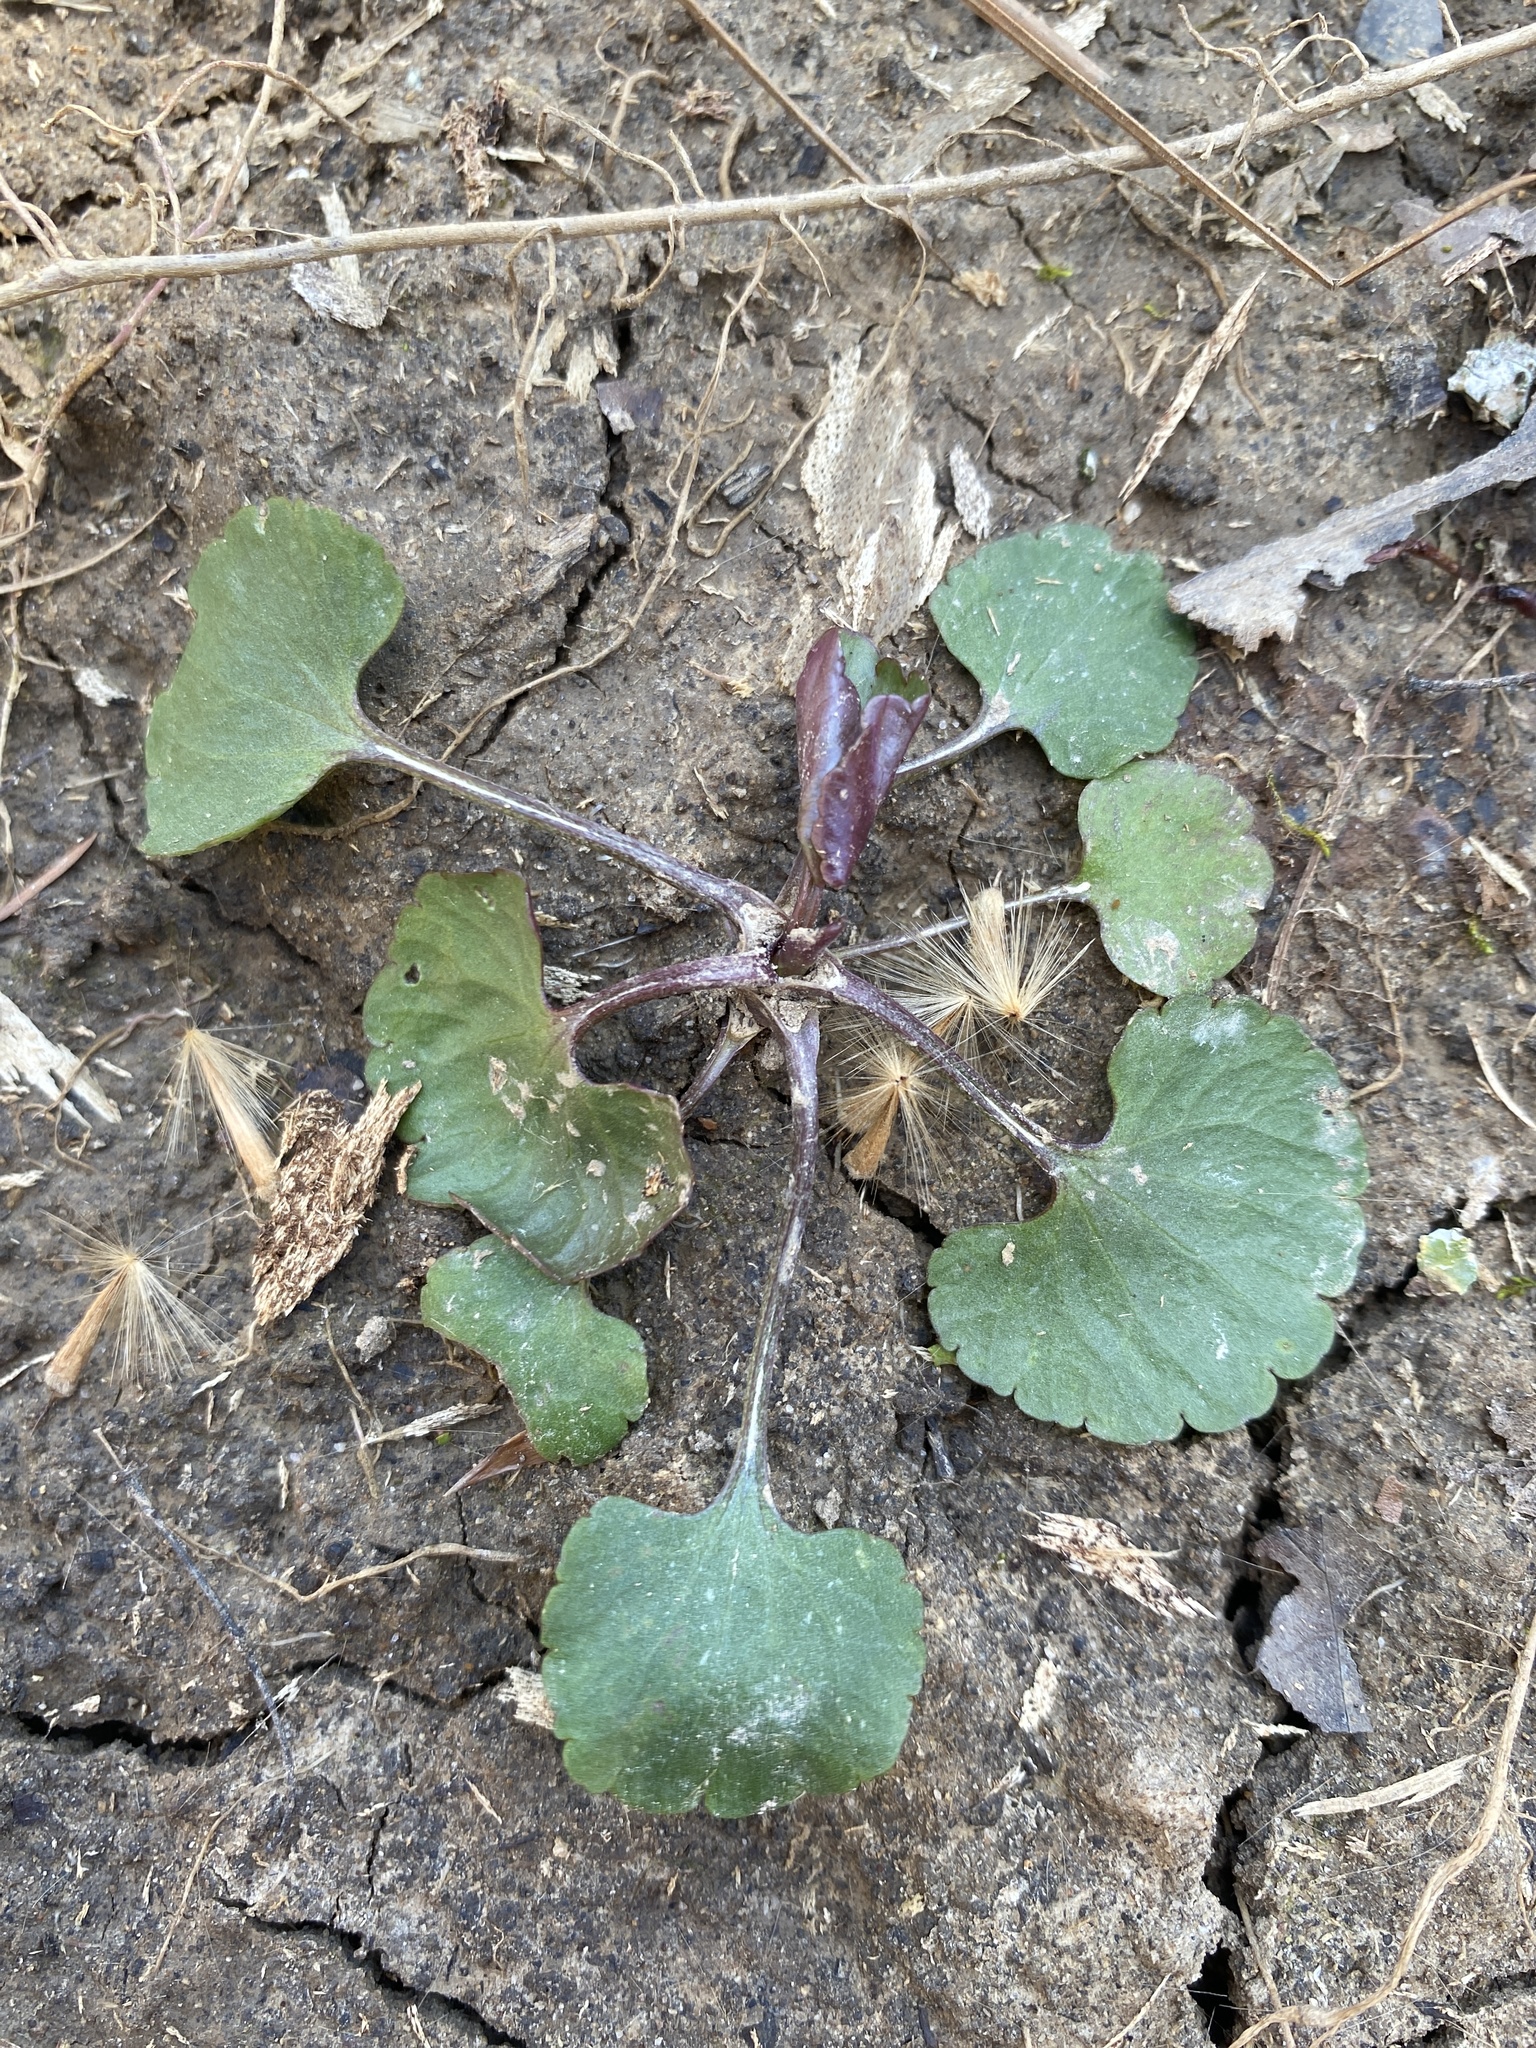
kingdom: Plantae
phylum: Tracheophyta
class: Magnoliopsida
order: Ranunculales
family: Ranunculaceae
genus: Ranunculus
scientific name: Ranunculus abortivus
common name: Early wood buttercup
